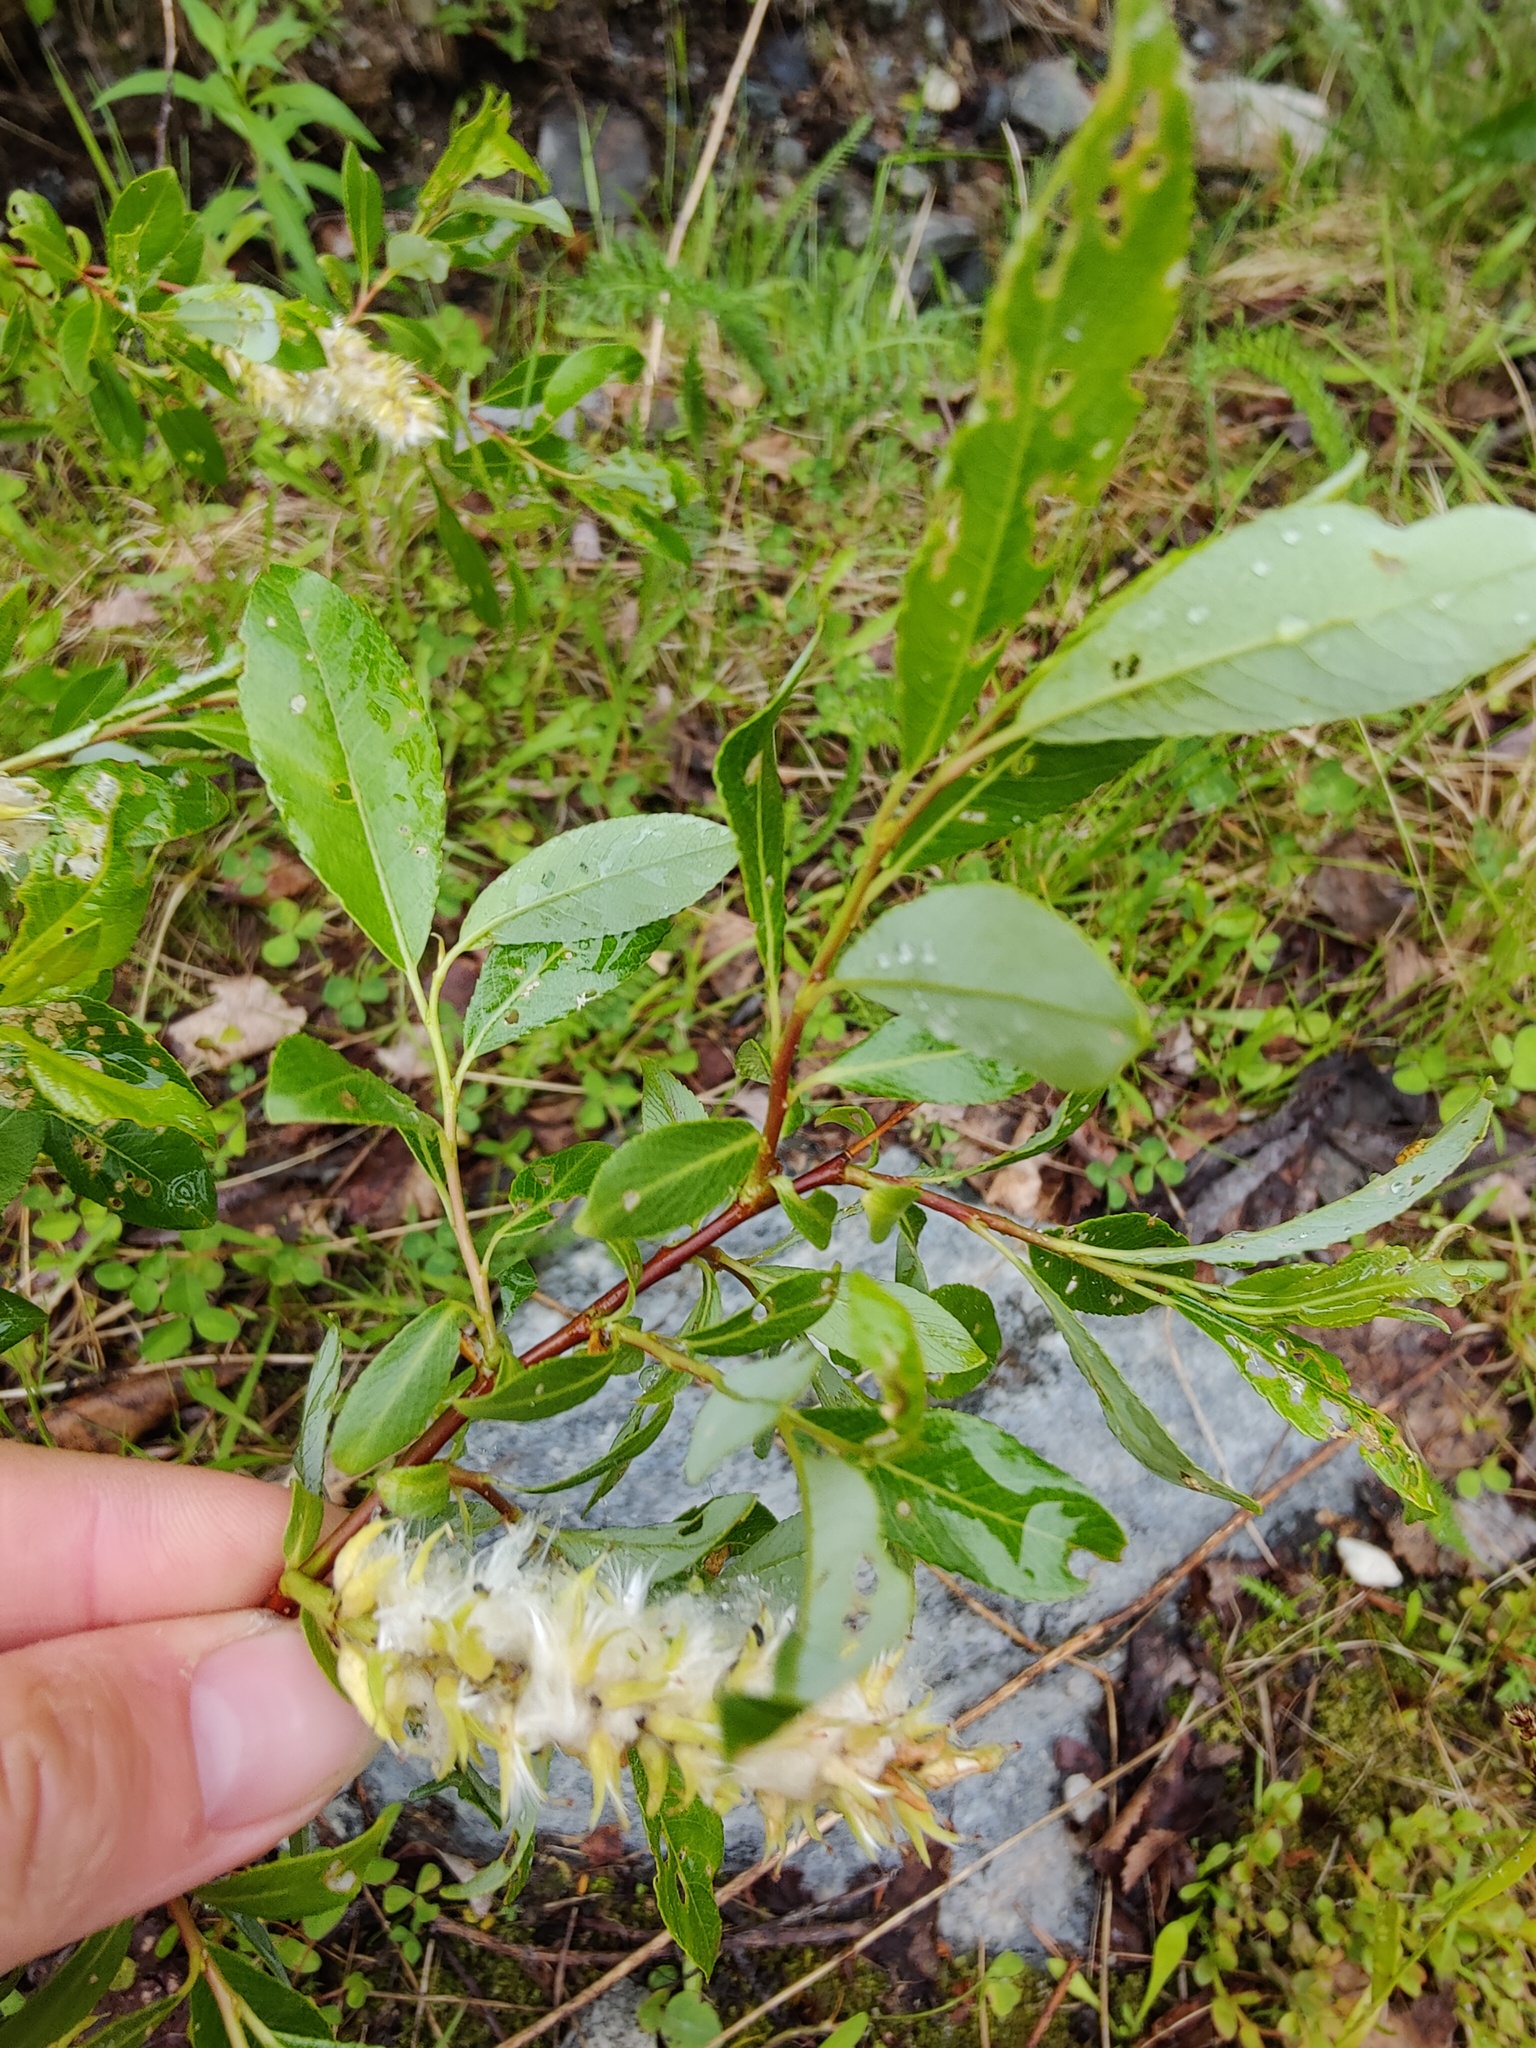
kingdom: Plantae
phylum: Tracheophyta
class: Magnoliopsida
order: Malpighiales
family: Salicaceae
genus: Salix
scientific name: Salix phylicifolia
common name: Tea-leaved willow
